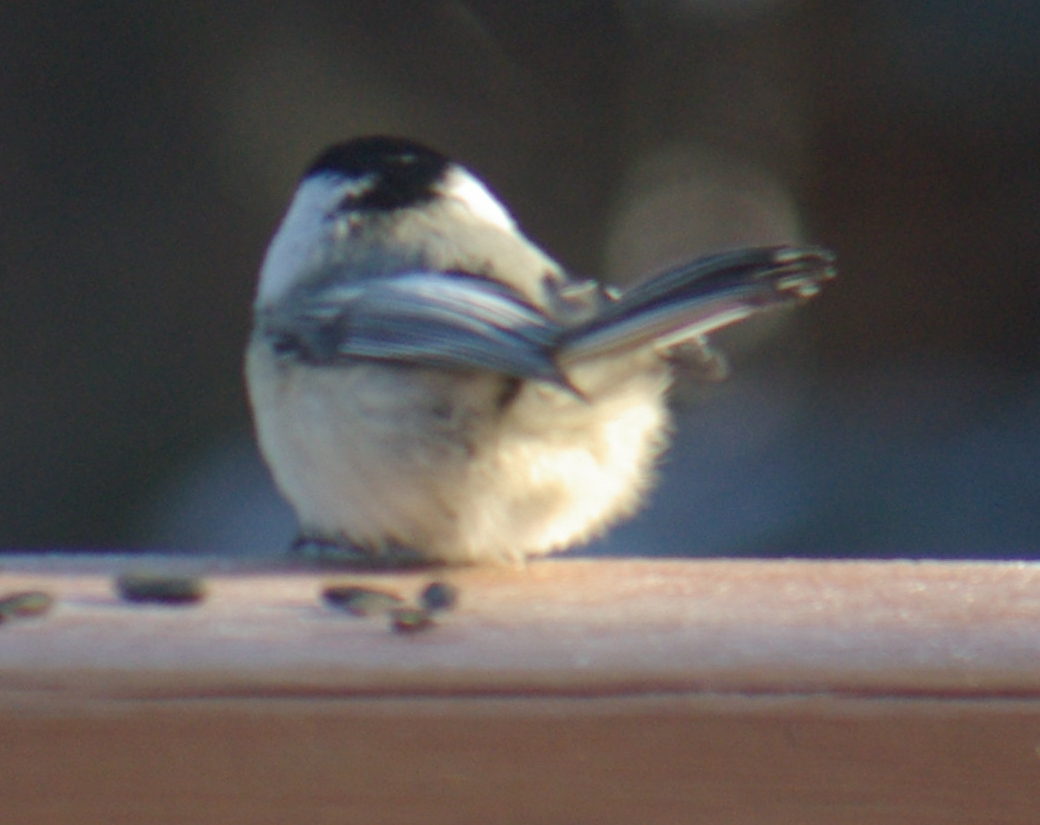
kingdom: Animalia
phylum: Chordata
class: Aves
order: Passeriformes
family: Paridae
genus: Poecile
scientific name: Poecile atricapillus
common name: Black-capped chickadee
